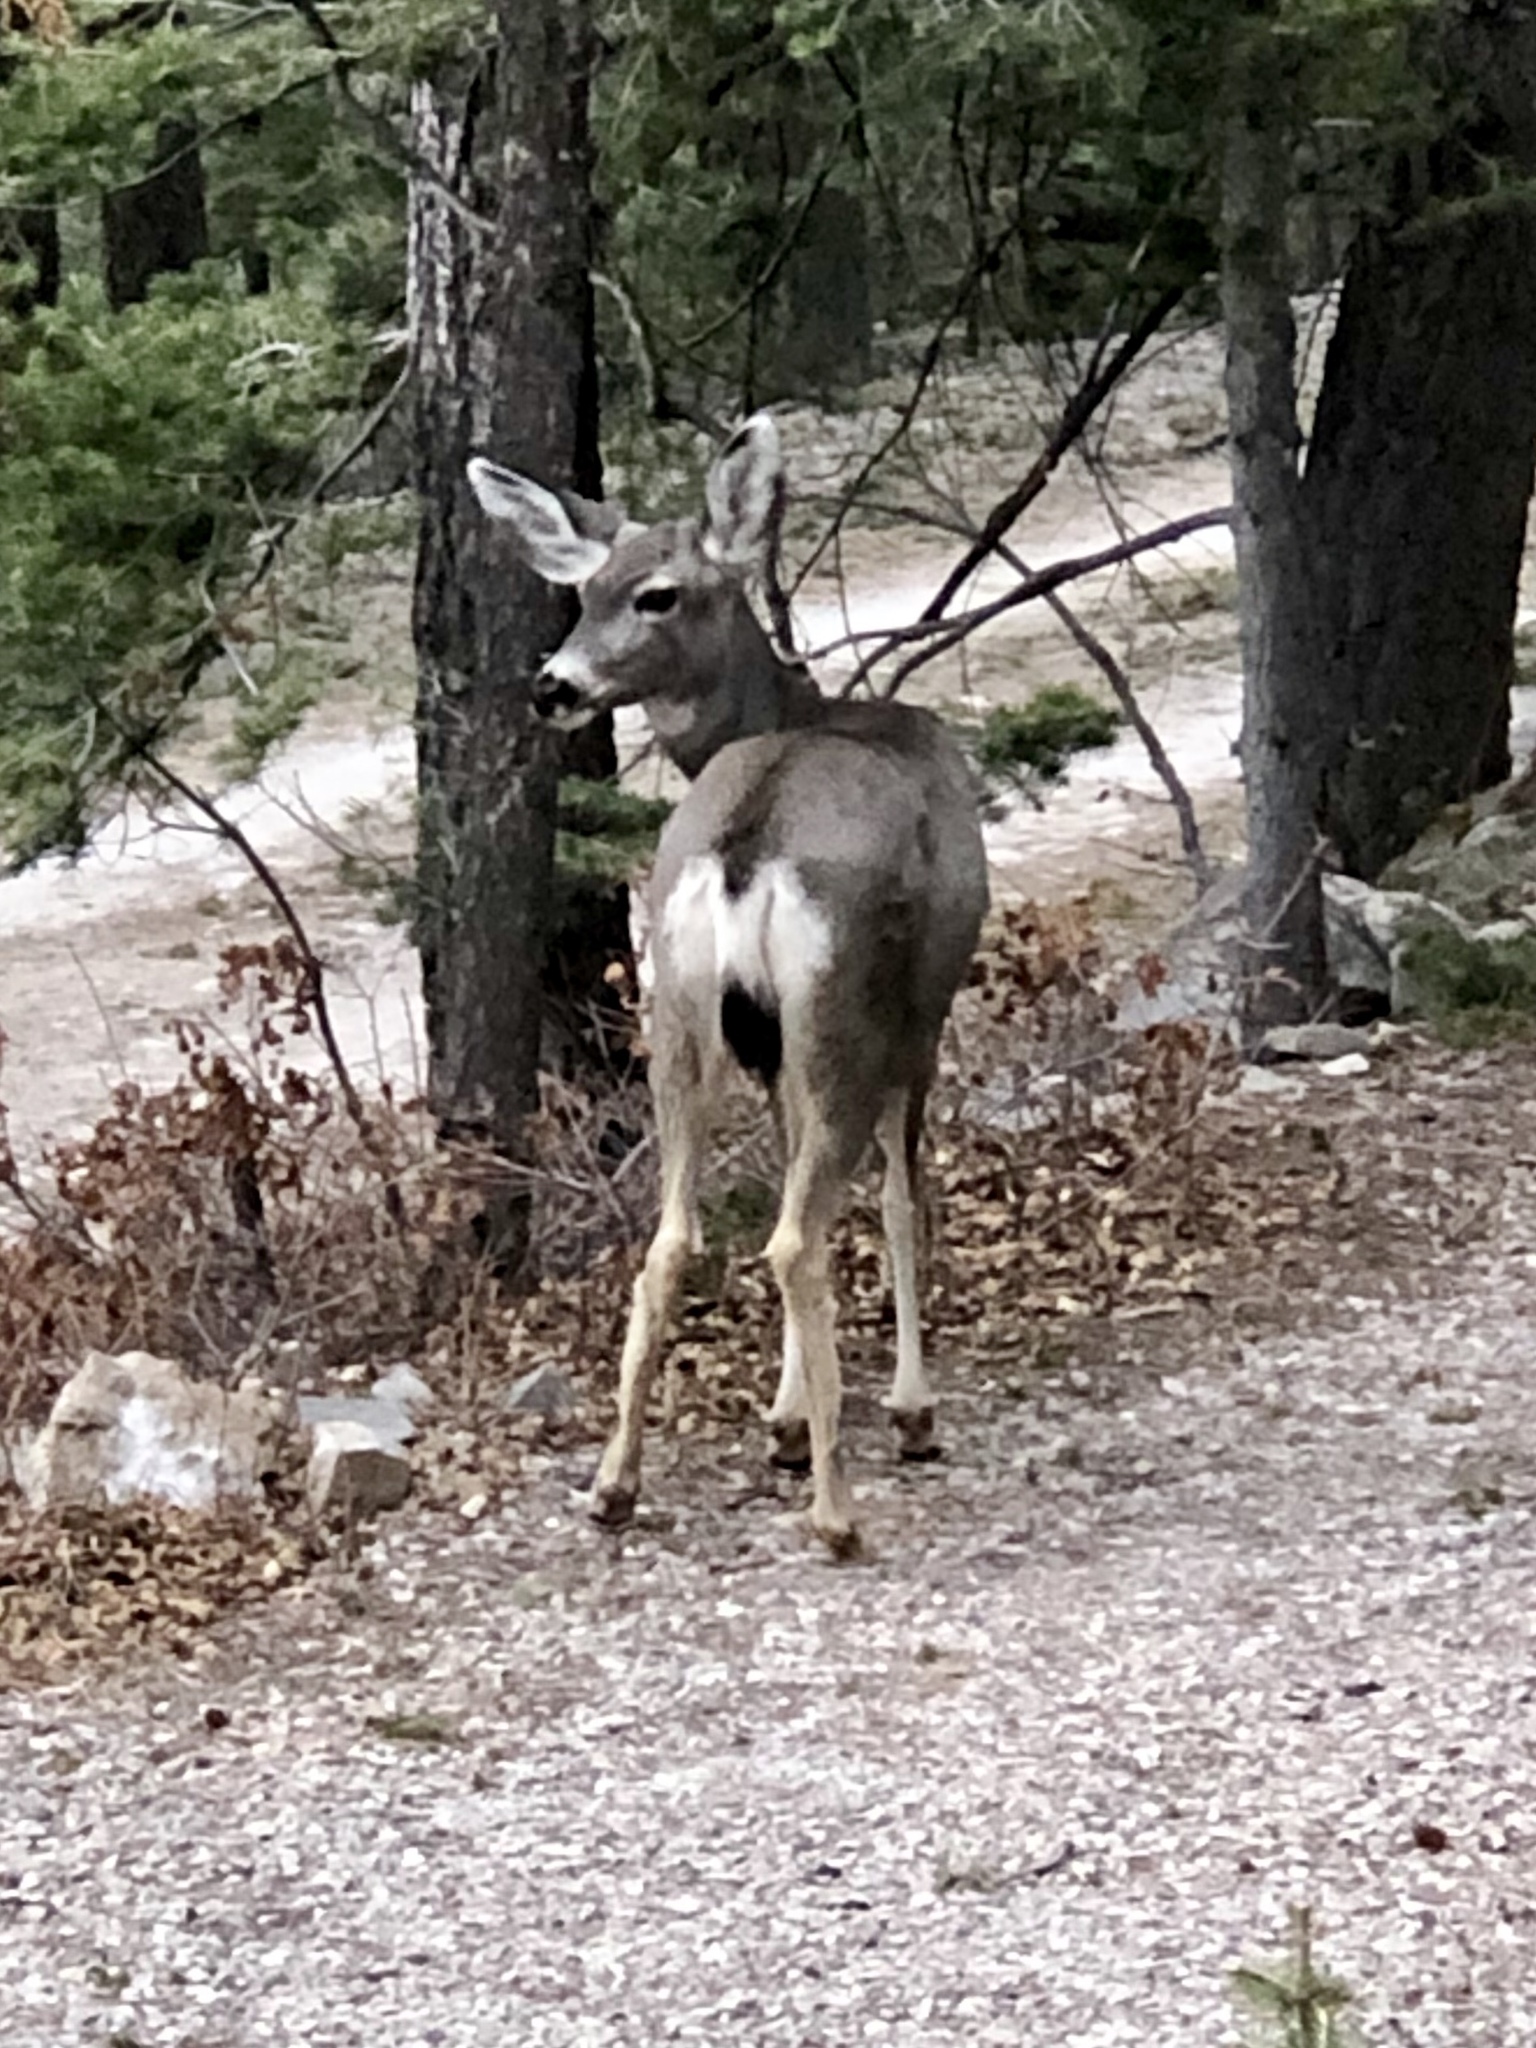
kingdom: Animalia
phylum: Chordata
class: Mammalia
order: Artiodactyla
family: Cervidae
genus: Odocoileus
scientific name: Odocoileus hemionus
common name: Mule deer
